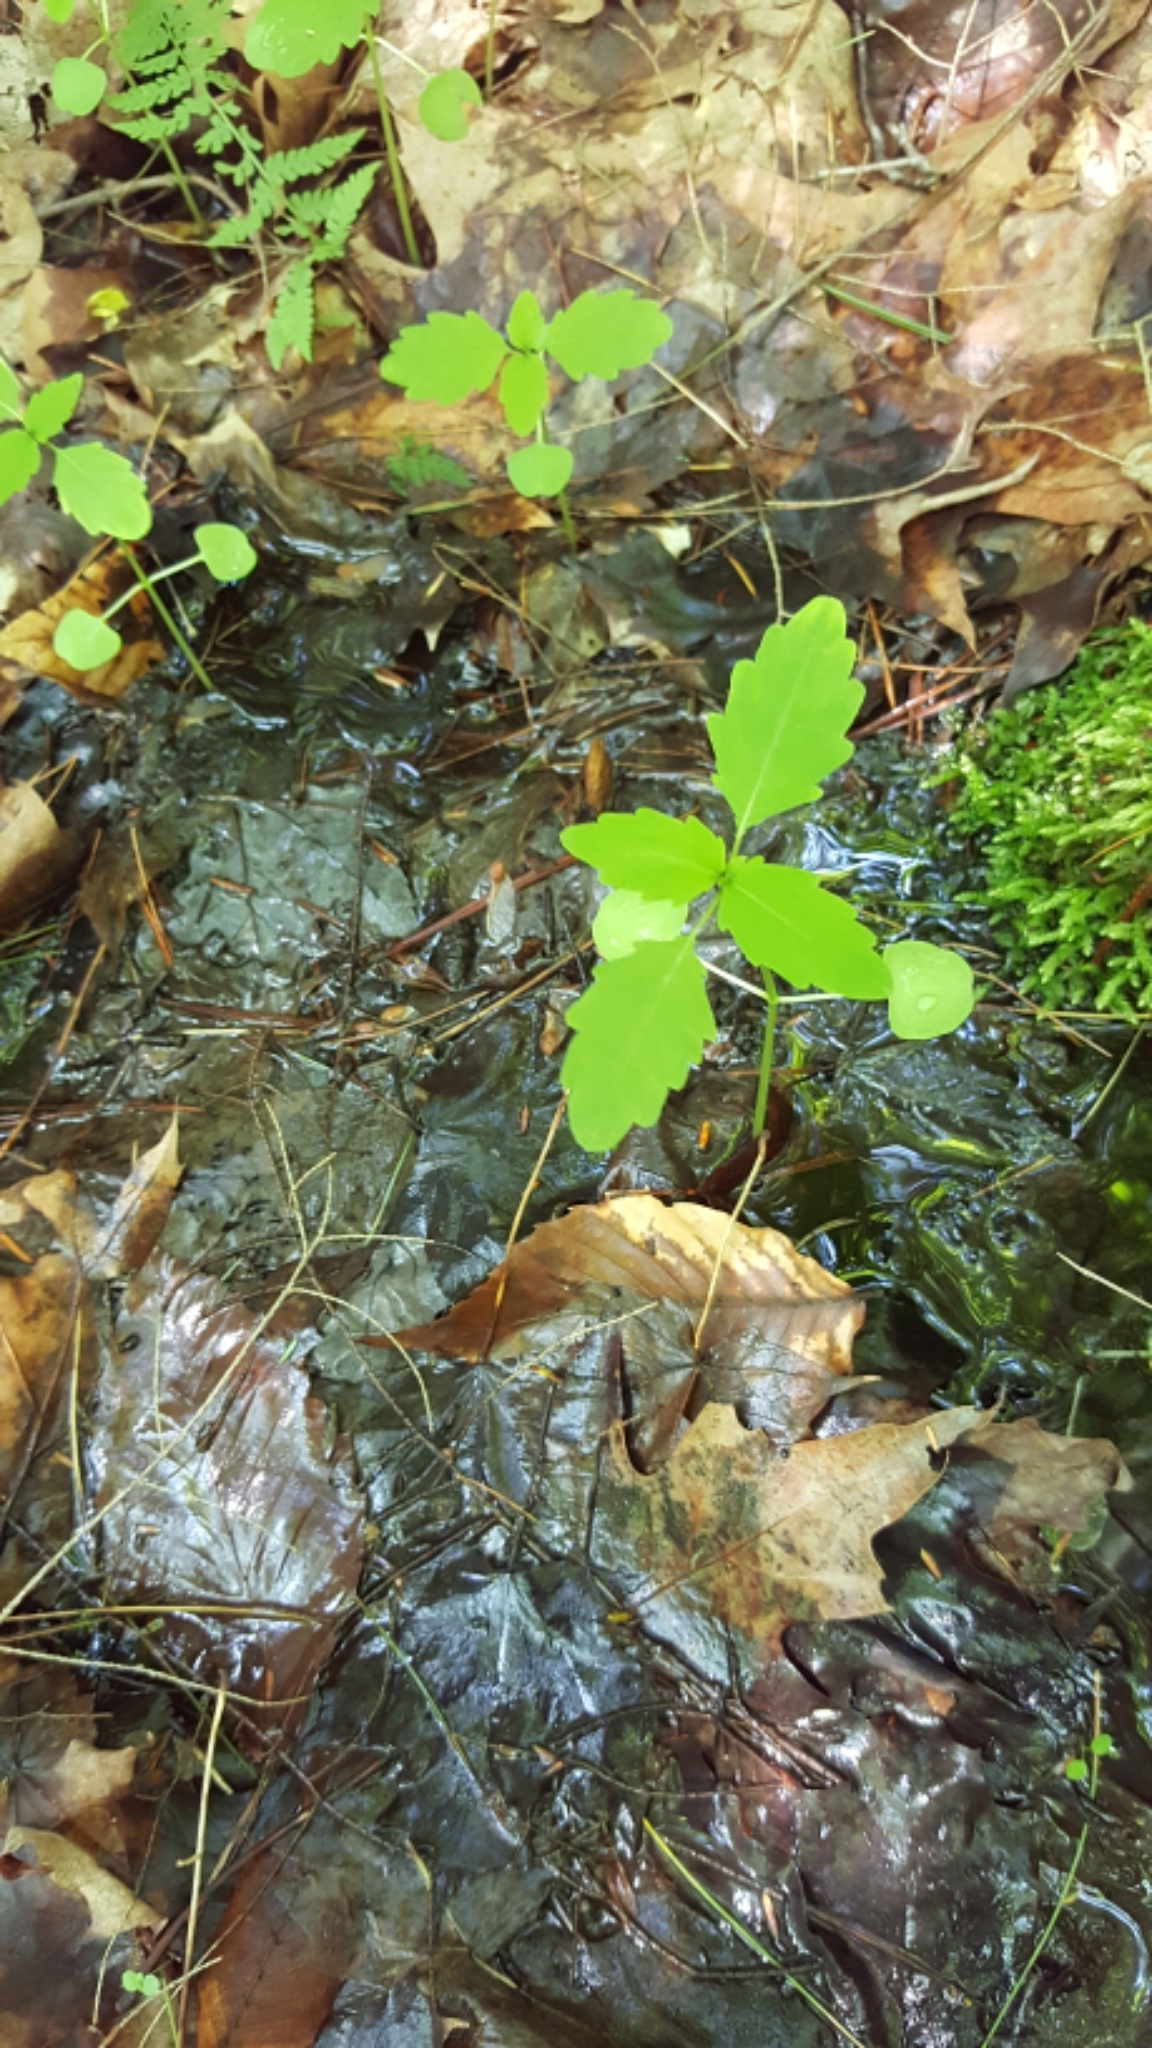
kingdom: Plantae
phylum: Tracheophyta
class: Magnoliopsida
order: Ericales
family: Balsaminaceae
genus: Impatiens
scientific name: Impatiens capensis
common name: Orange balsam
